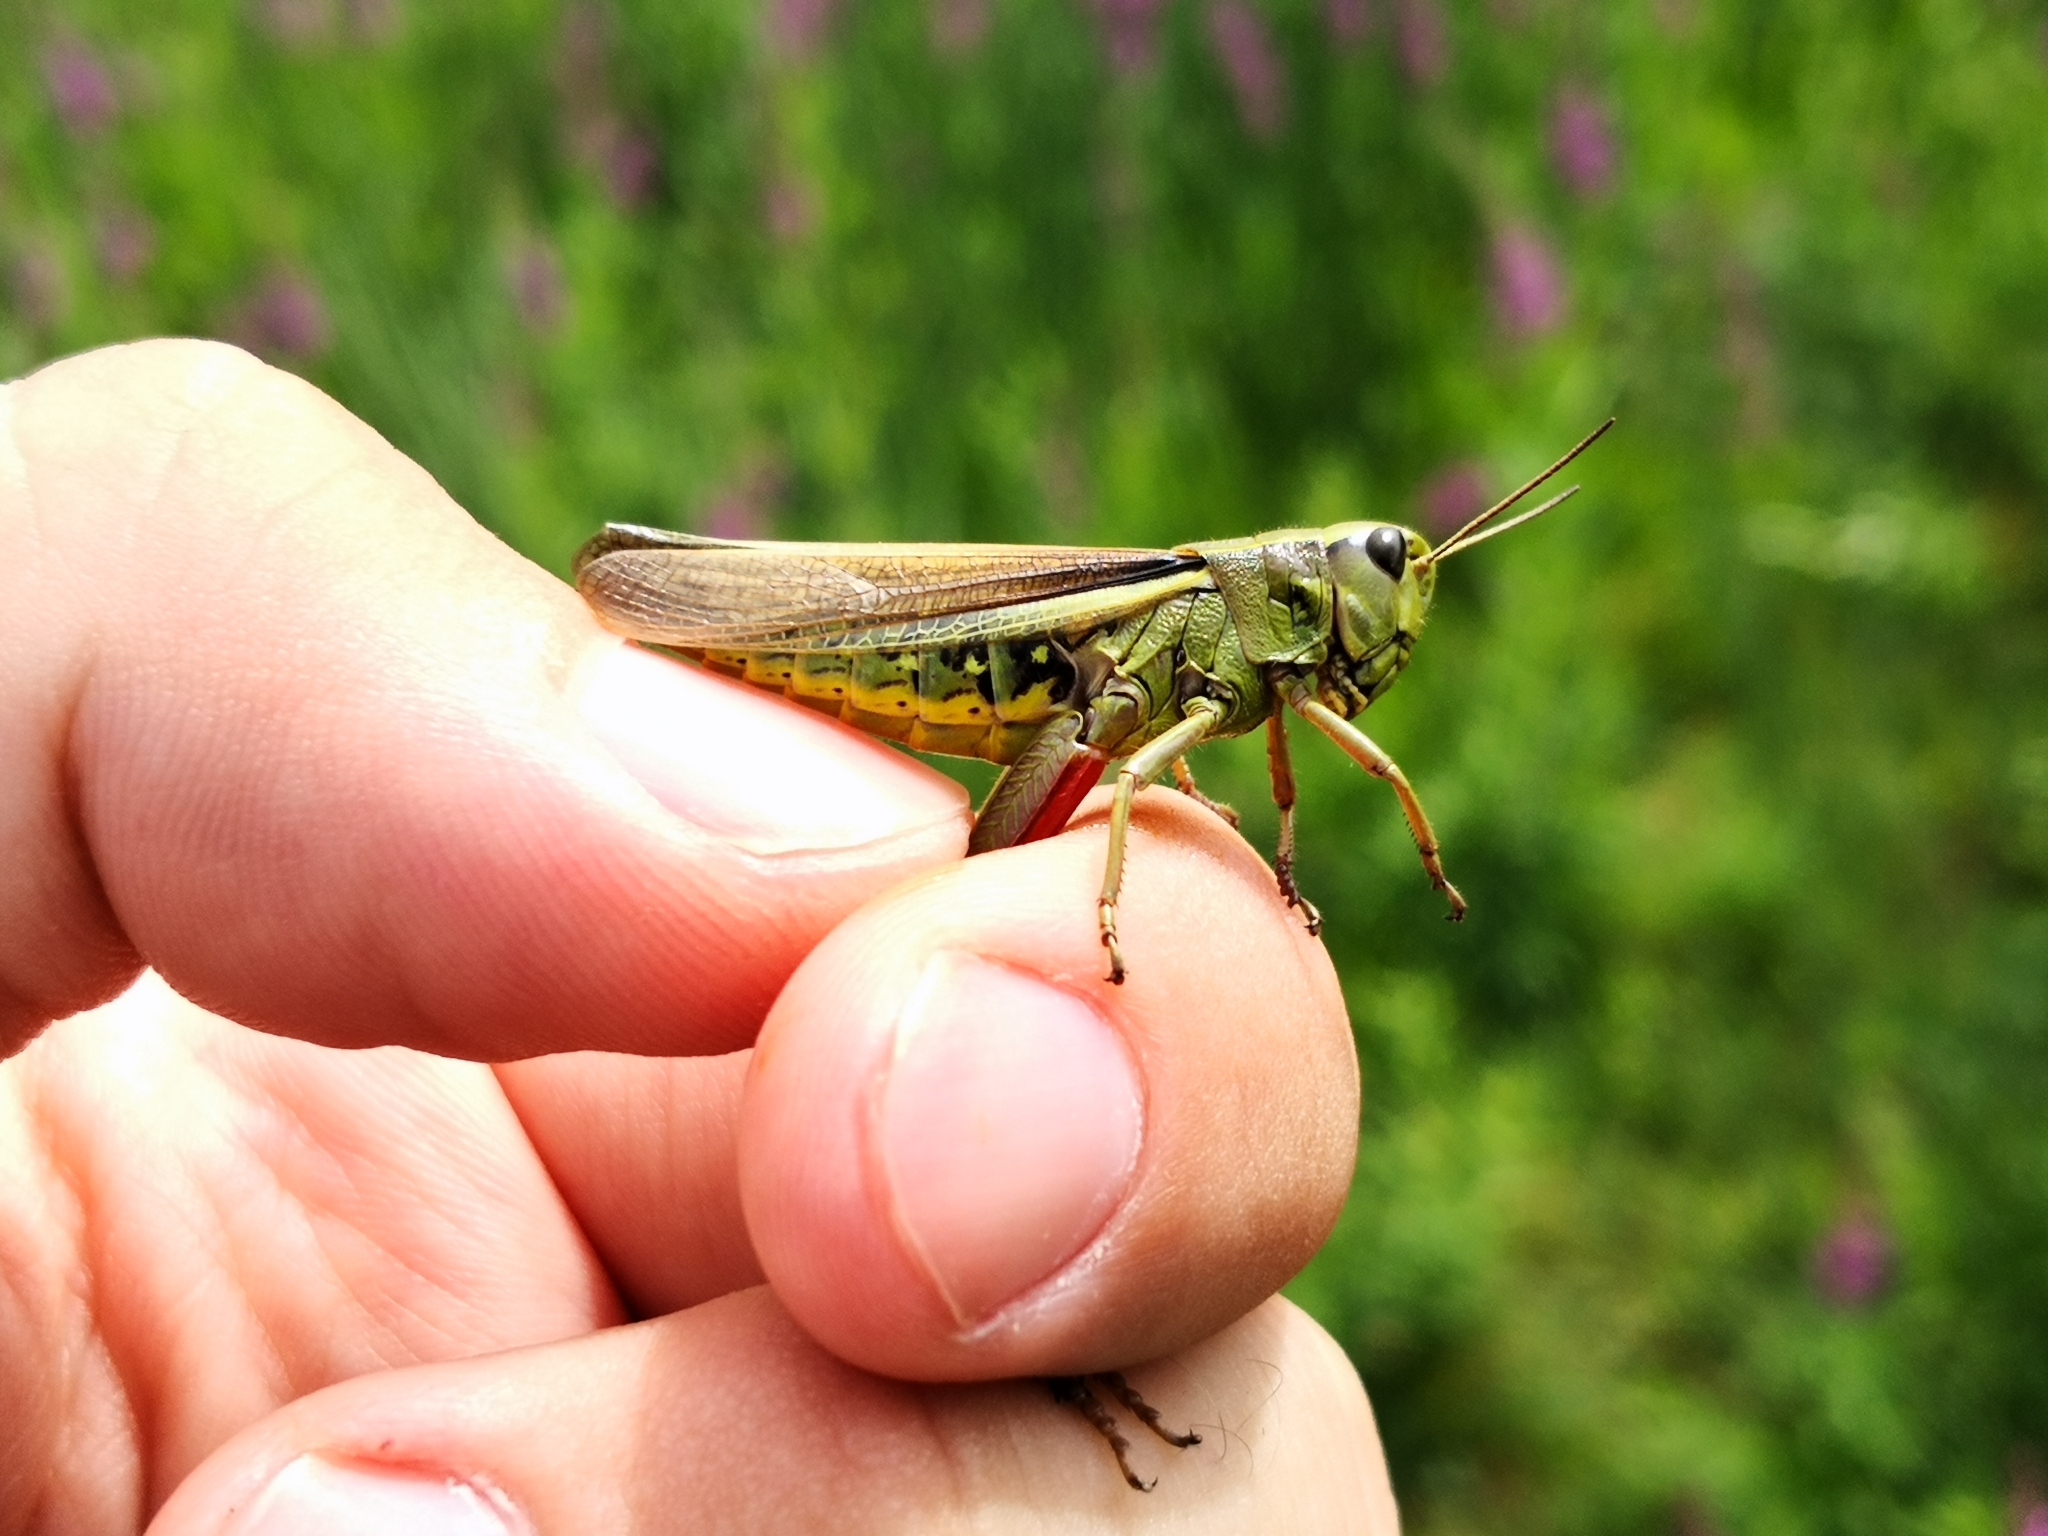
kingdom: Animalia
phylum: Arthropoda
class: Insecta
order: Orthoptera
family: Acrididae
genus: Stethophyma
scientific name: Stethophyma grossum
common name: Large marsh grasshopper
